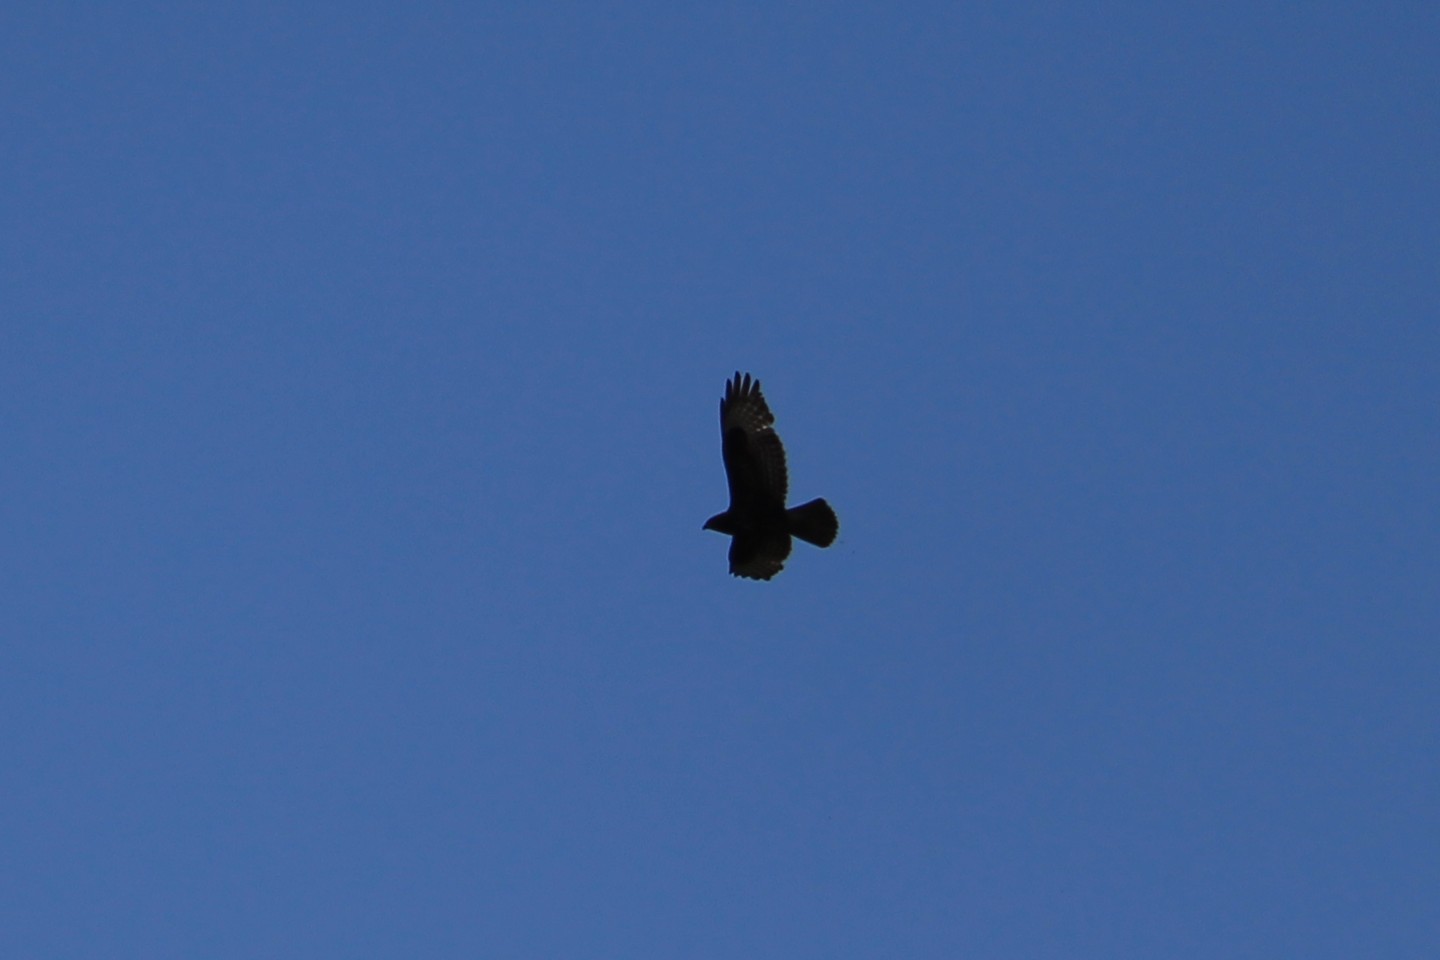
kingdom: Animalia
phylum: Chordata
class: Aves
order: Accipitriformes
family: Accipitridae
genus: Buteo
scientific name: Buteo buteo
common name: Common buzzard
